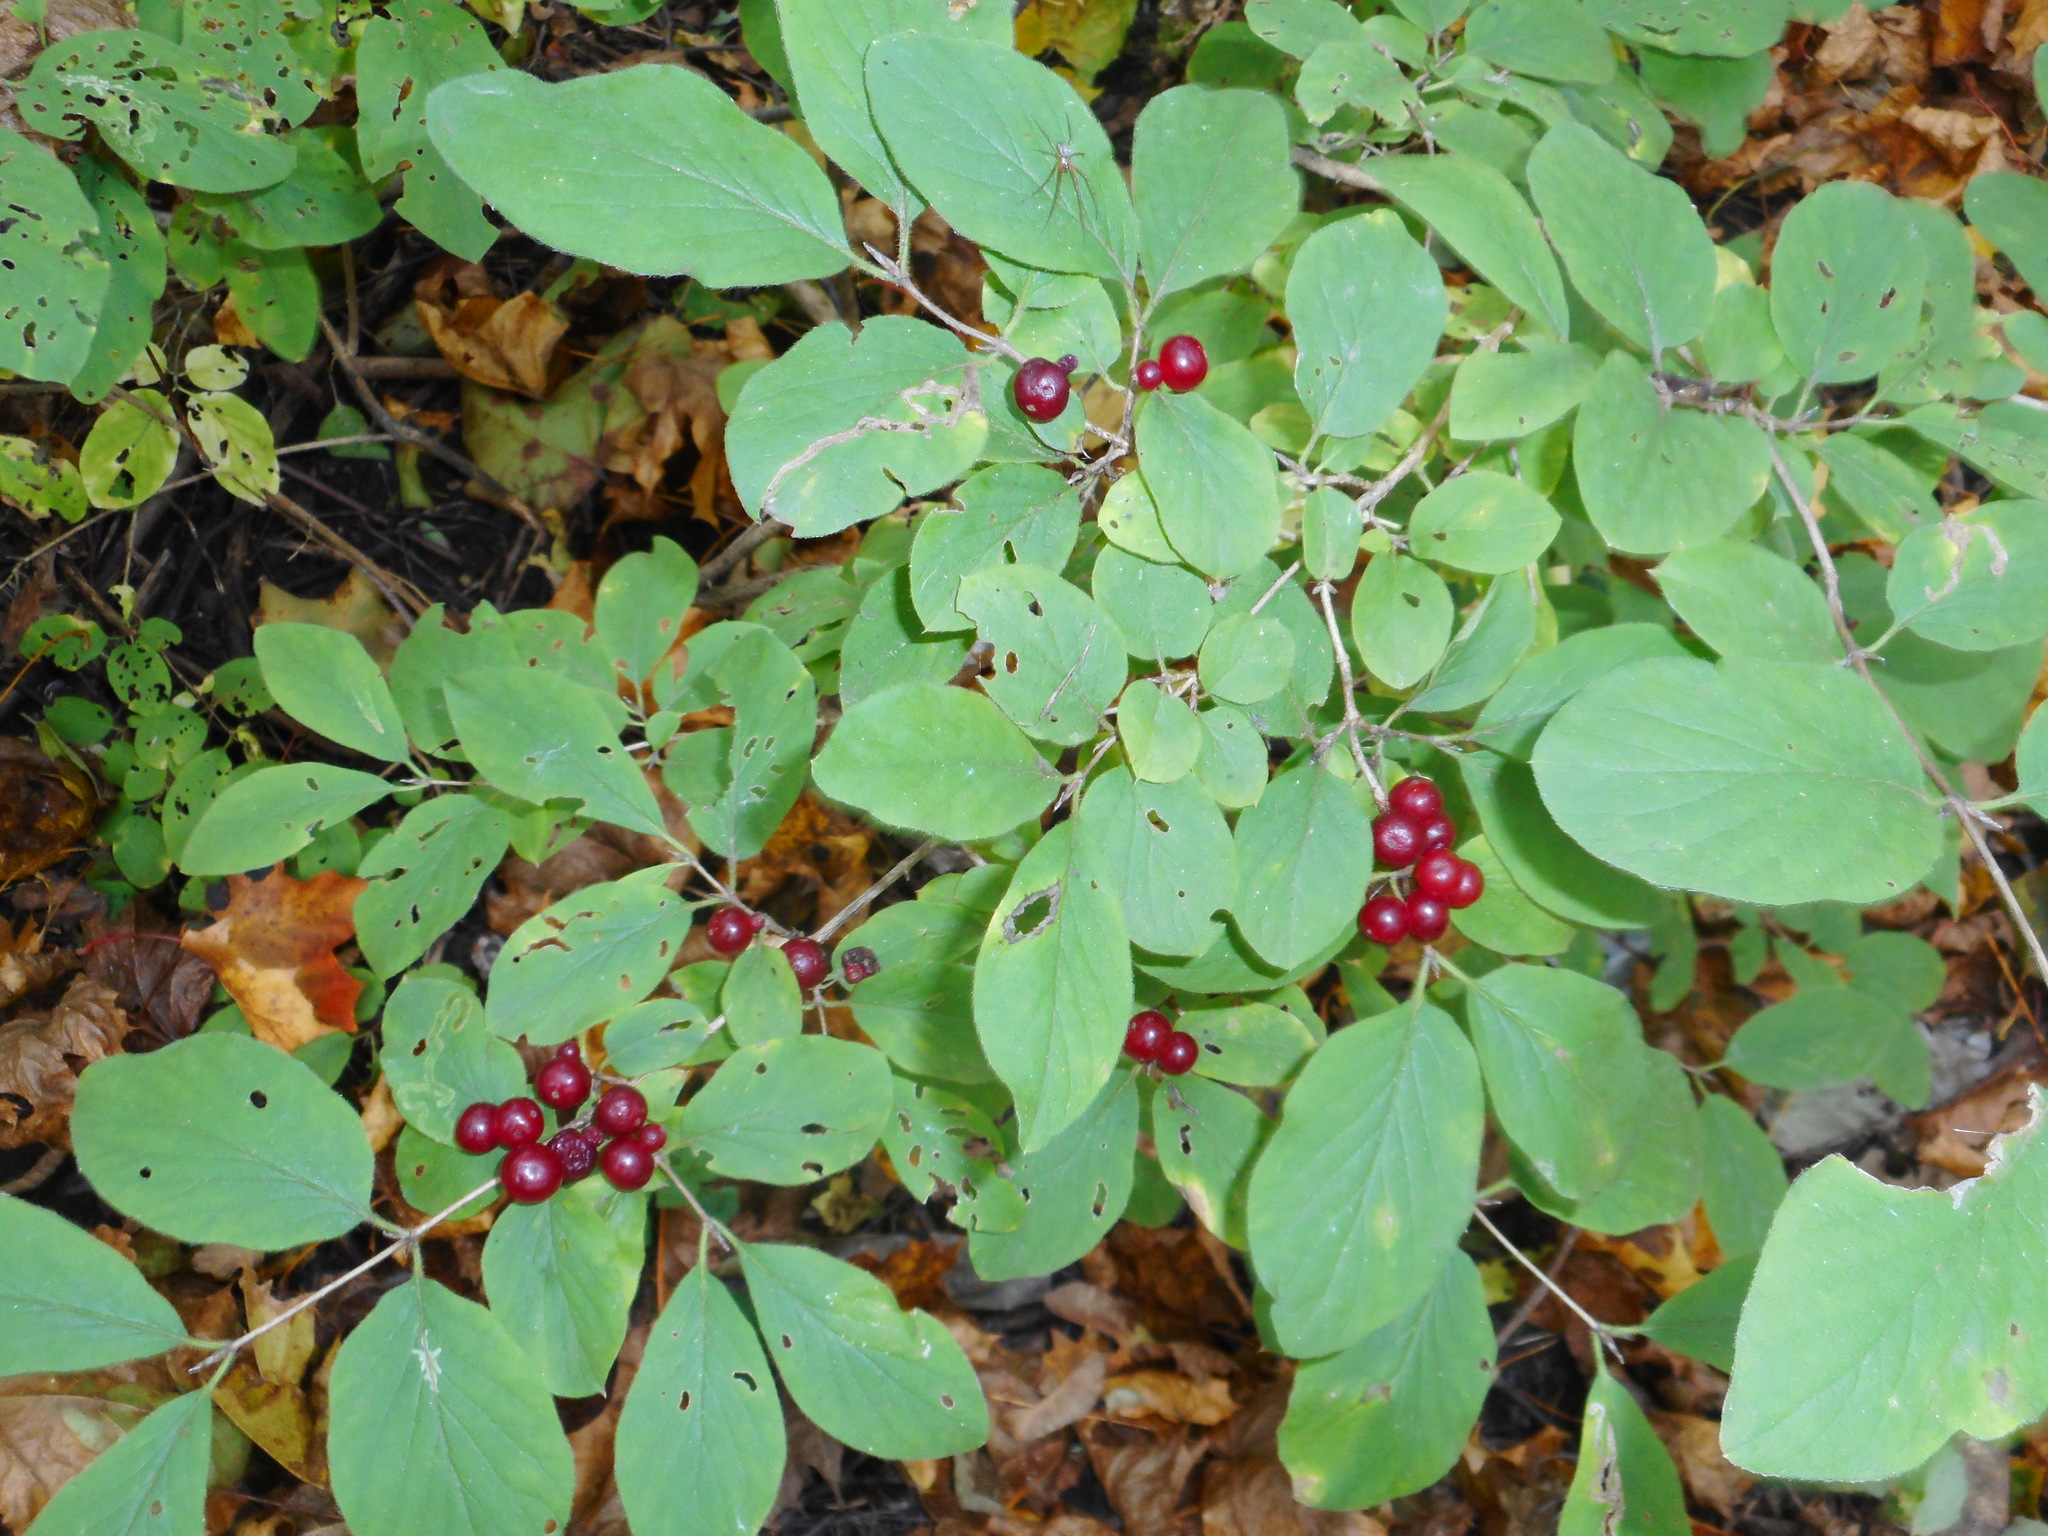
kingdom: Plantae
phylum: Tracheophyta
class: Magnoliopsida
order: Dipsacales
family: Caprifoliaceae
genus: Lonicera
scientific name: Lonicera xylosteum
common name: Fly honeysuckle
